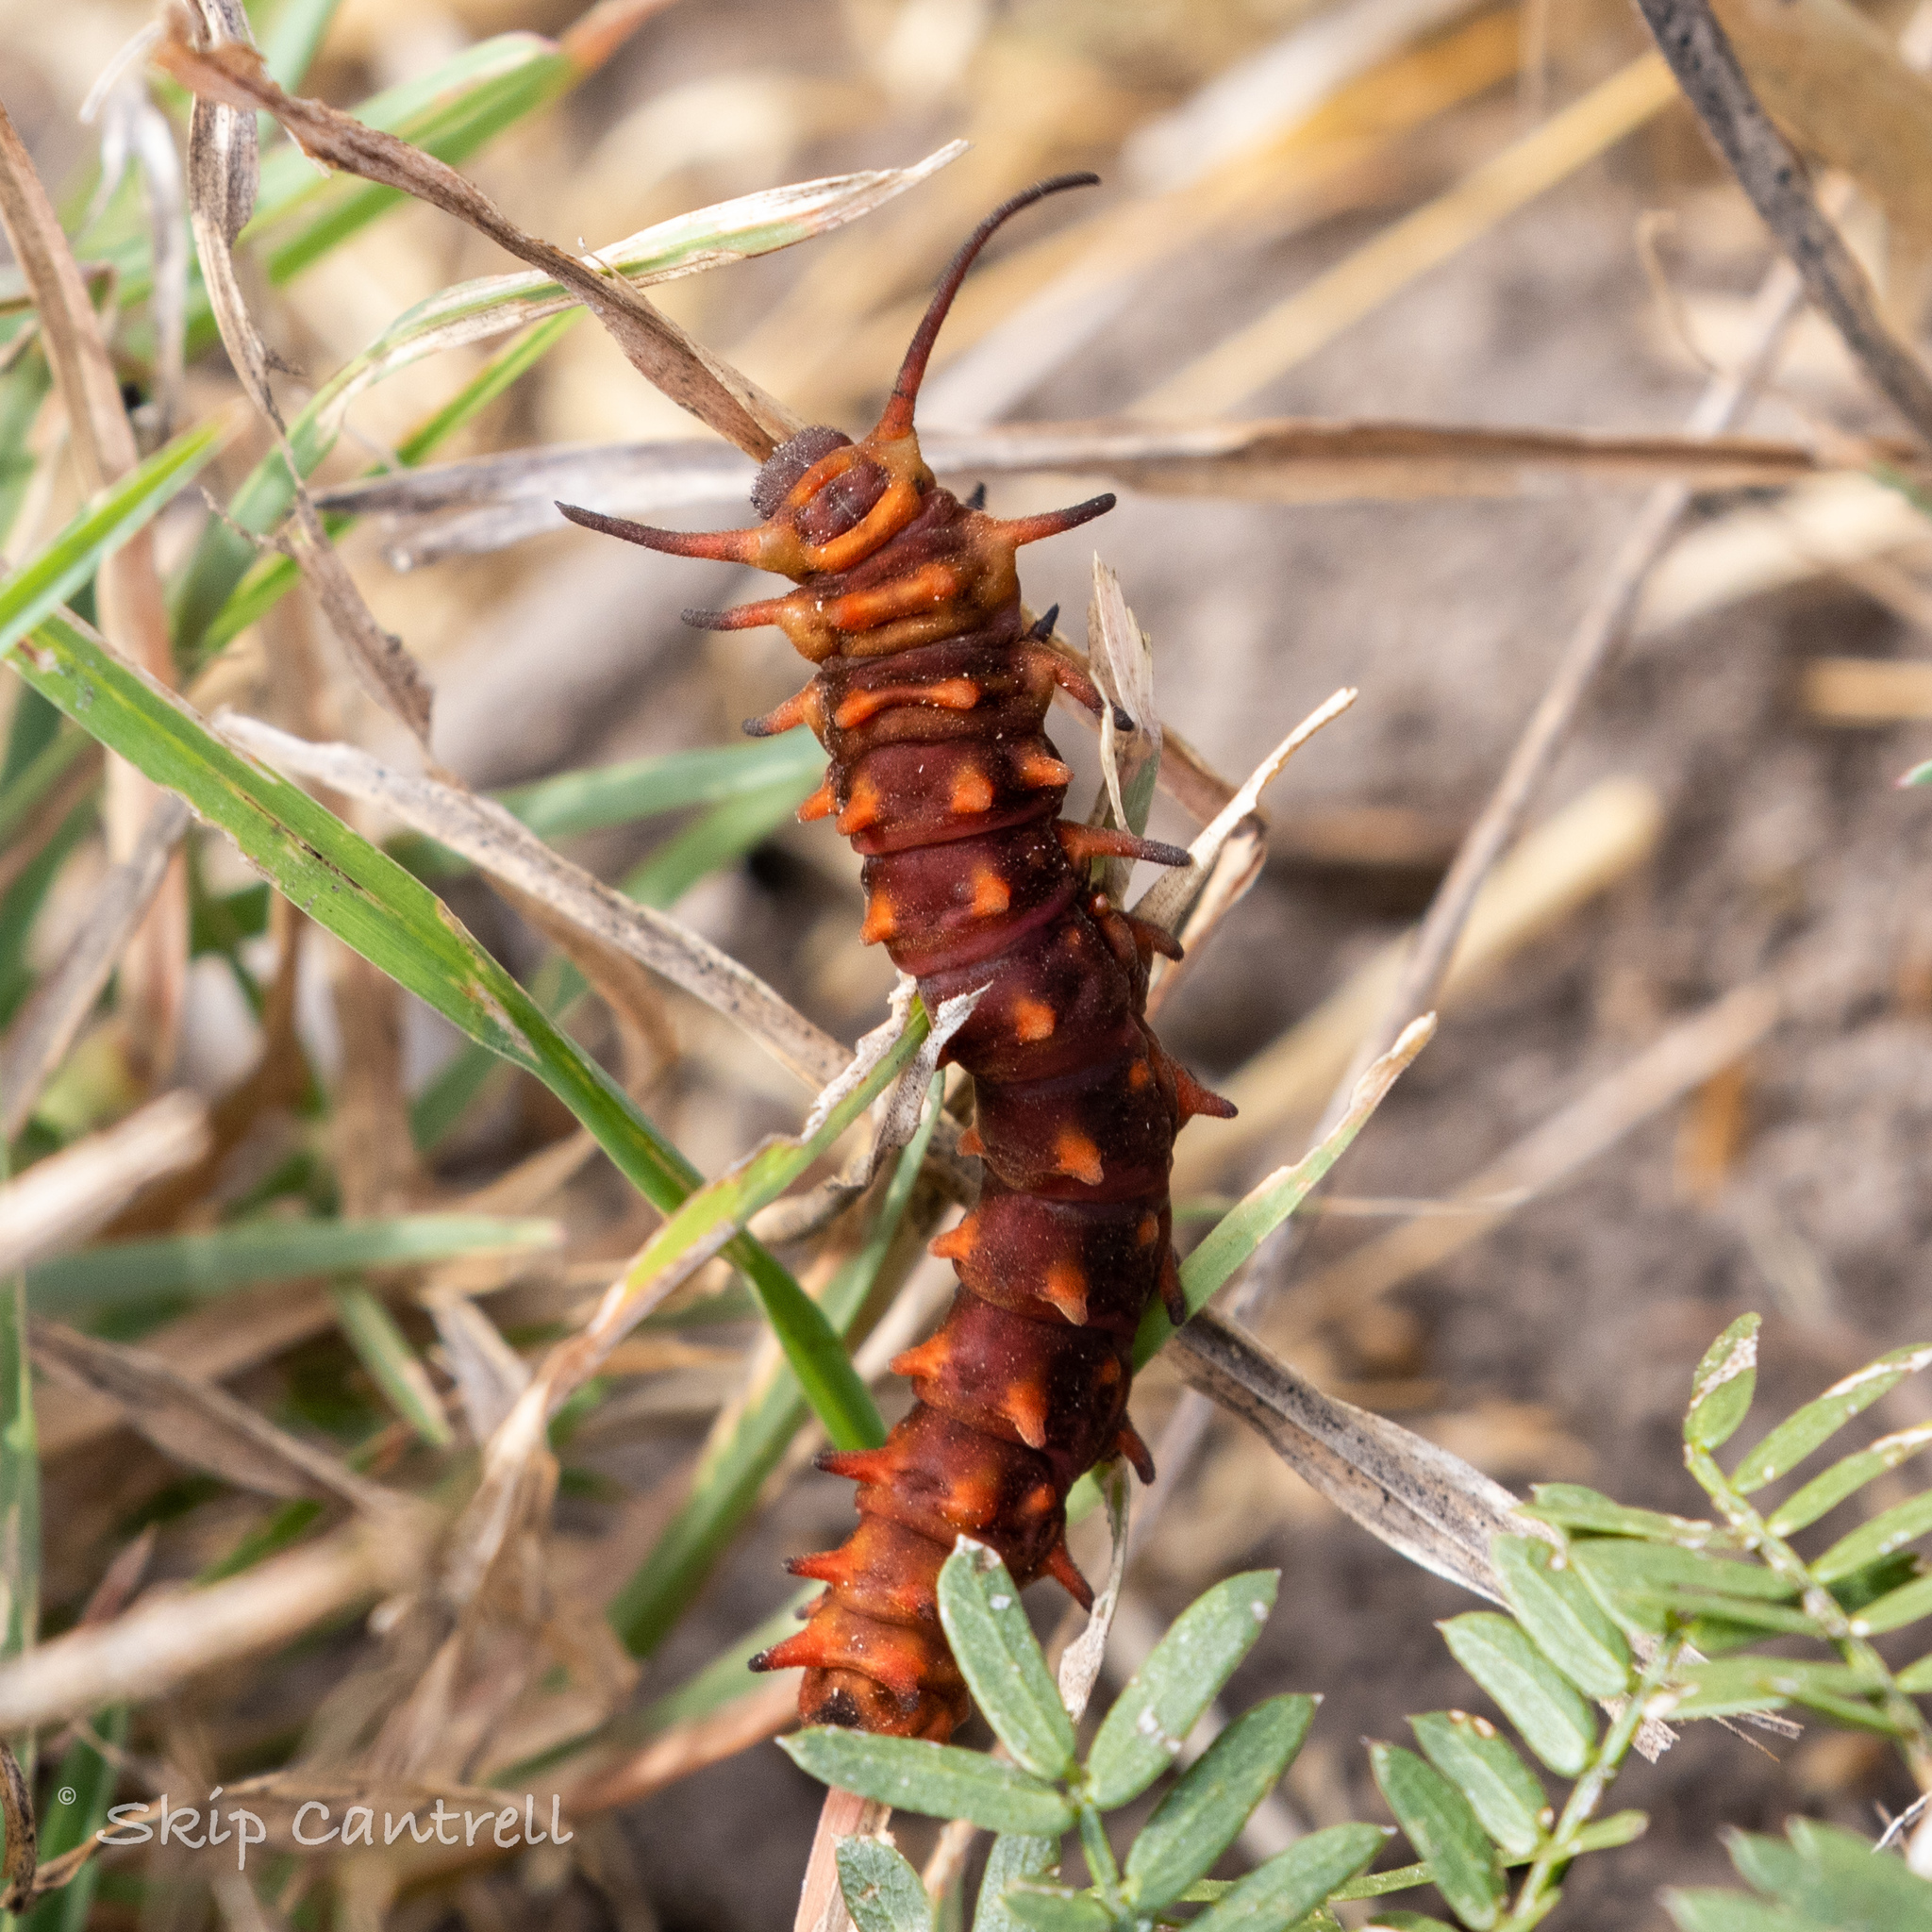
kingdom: Animalia
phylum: Arthropoda
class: Insecta
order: Lepidoptera
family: Papilionidae
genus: Battus
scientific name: Battus philenor
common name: Pipevine swallowtail
